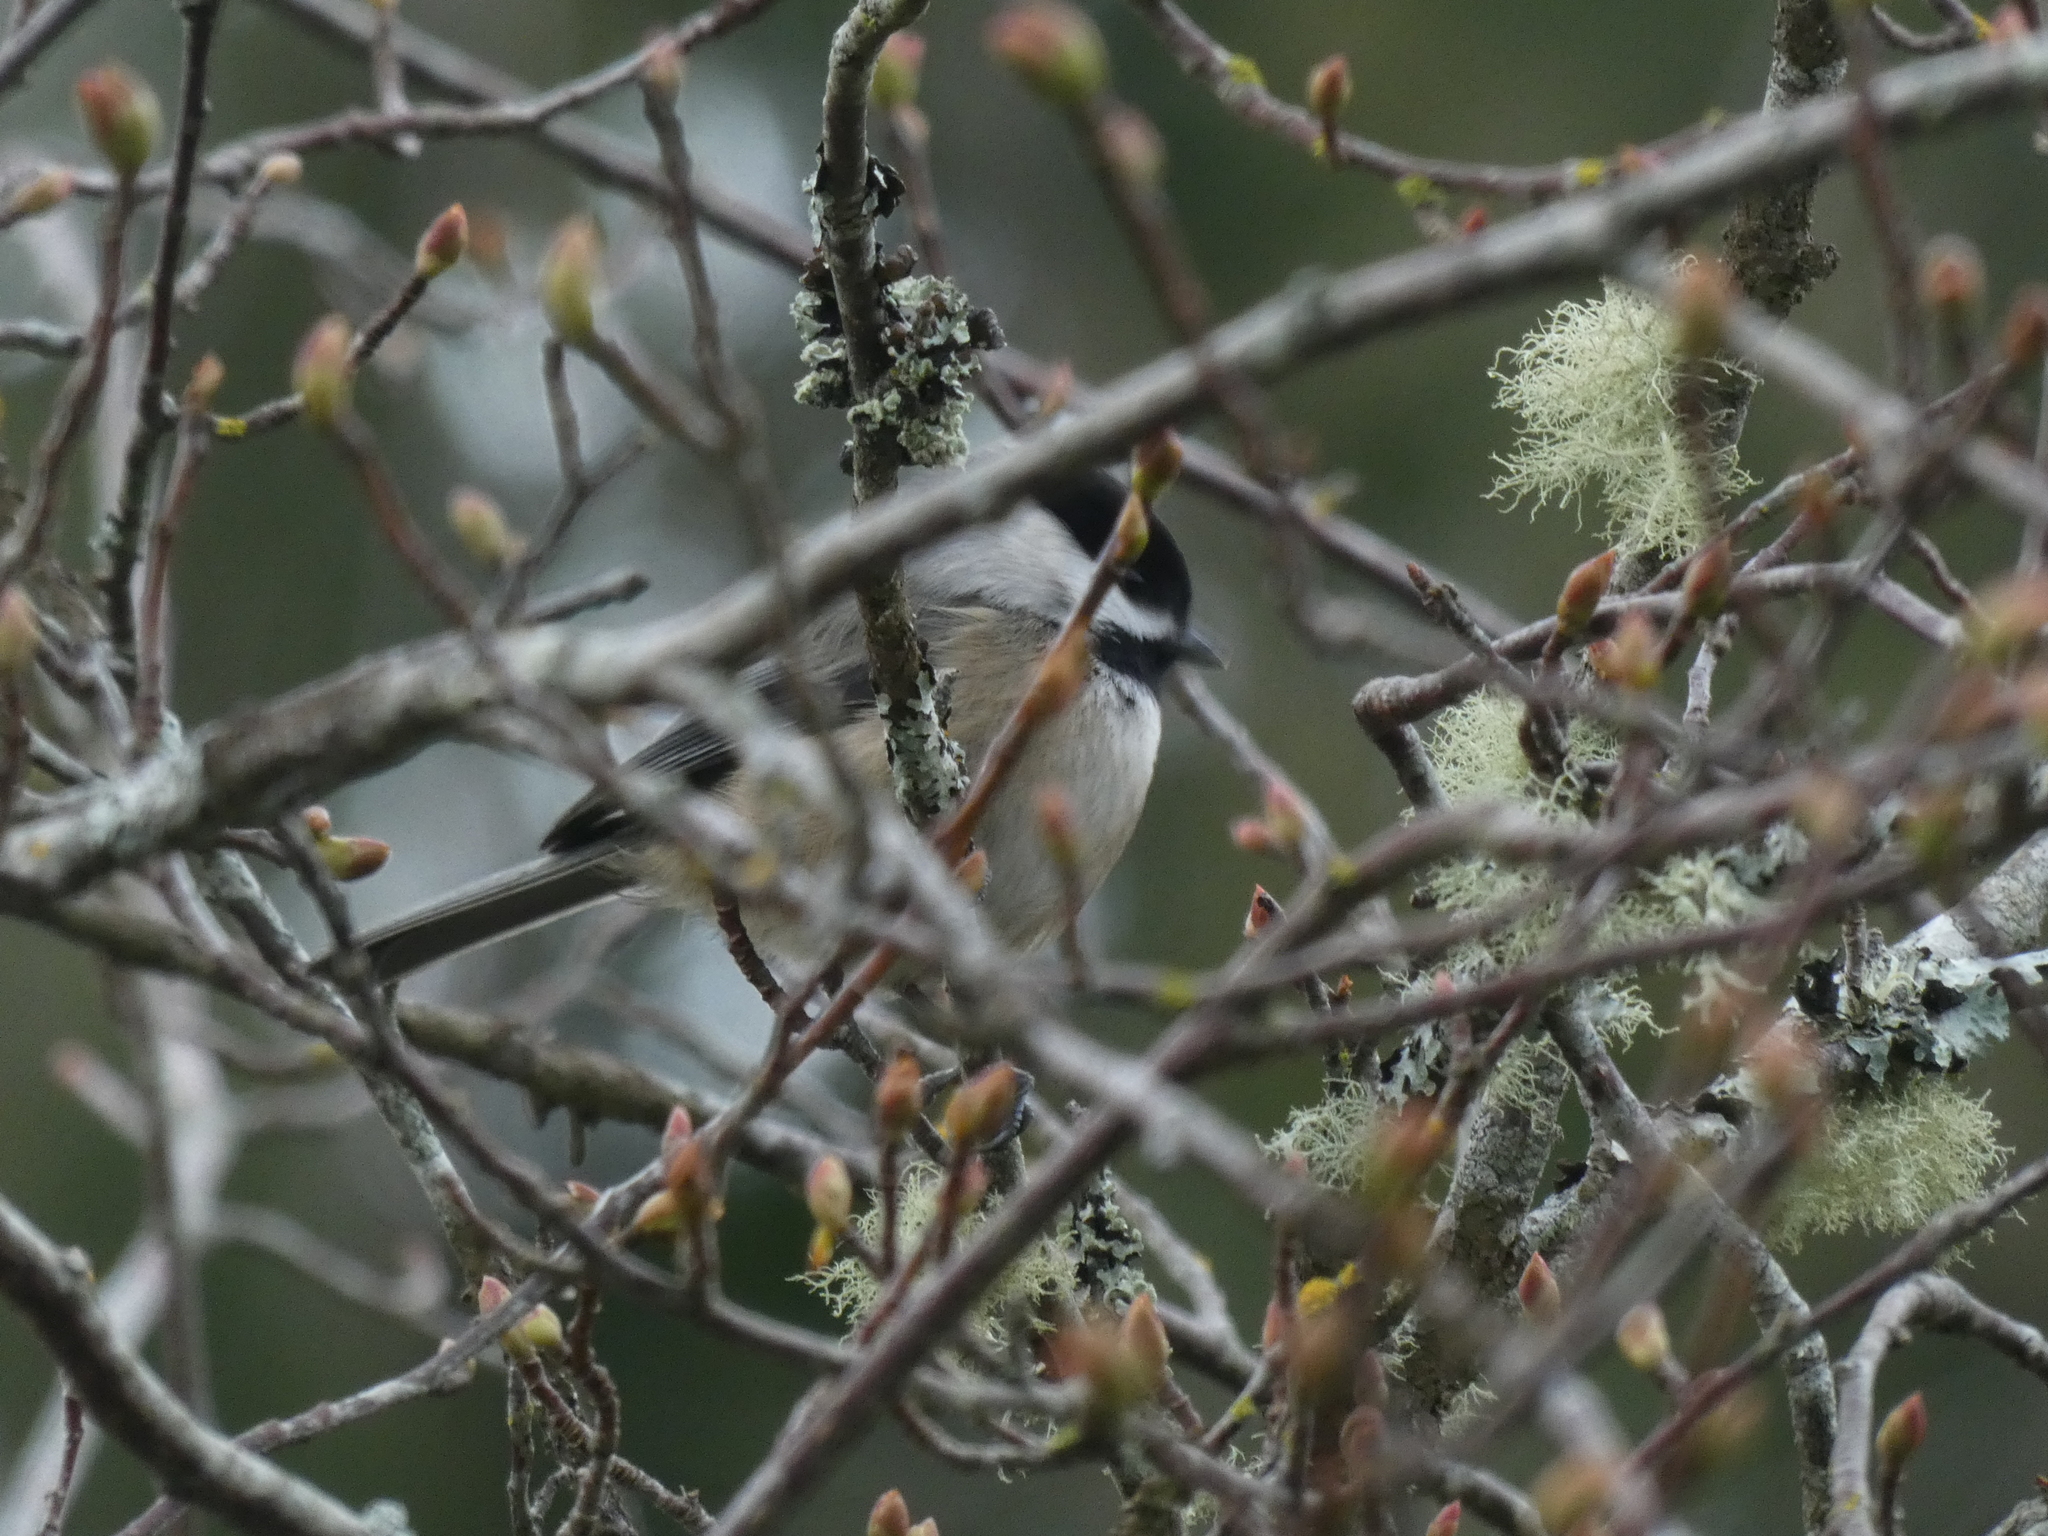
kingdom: Animalia
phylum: Chordata
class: Aves
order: Passeriformes
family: Paridae
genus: Poecile
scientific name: Poecile atricapillus
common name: Black-capped chickadee
